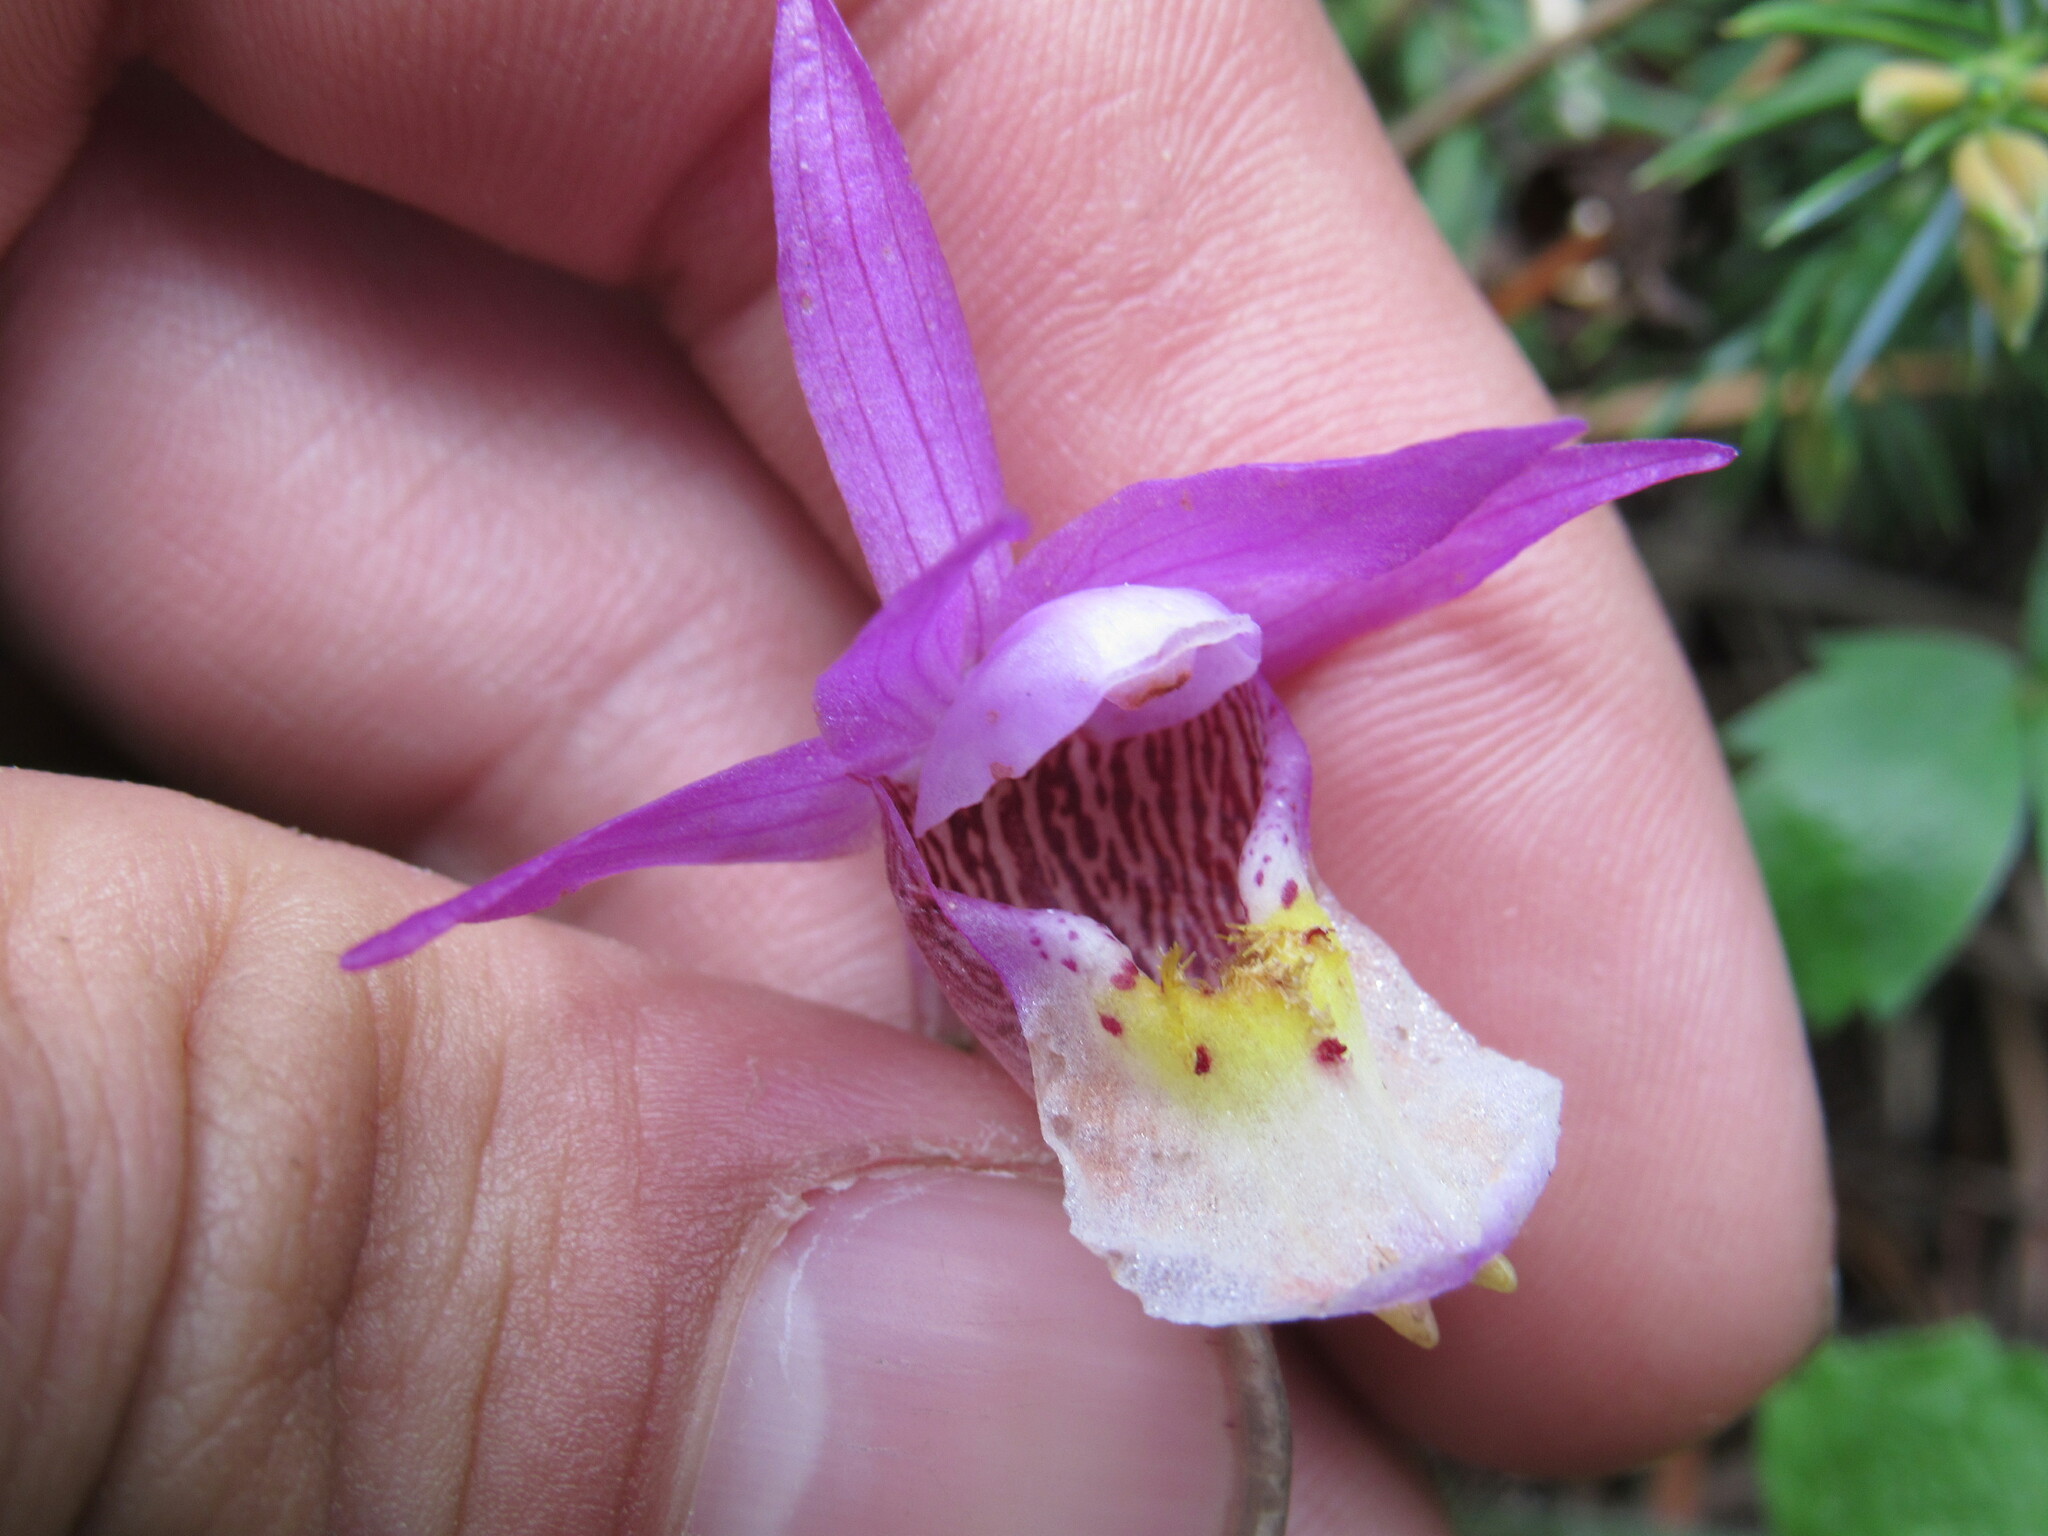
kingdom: Plantae
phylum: Tracheophyta
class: Liliopsida
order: Asparagales
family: Orchidaceae
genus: Calypso
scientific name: Calypso bulbosa
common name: Calypso
